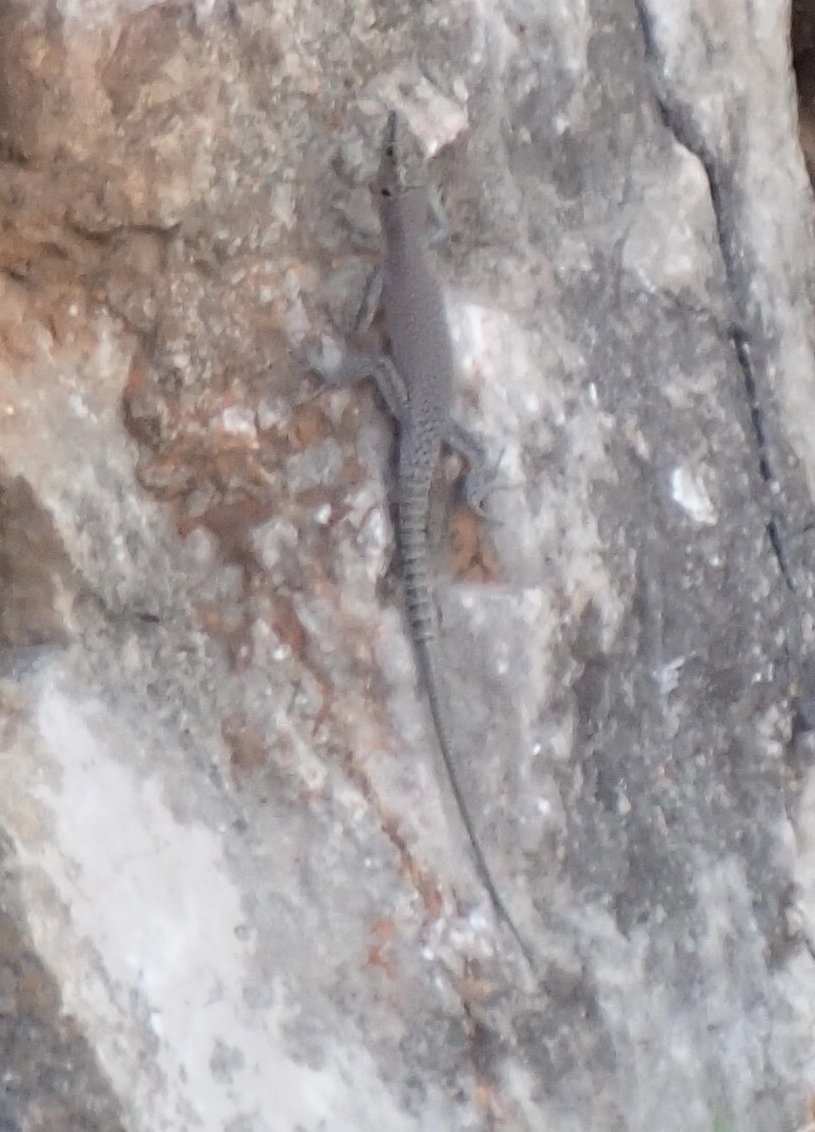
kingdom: Animalia
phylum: Chordata
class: Squamata
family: Lacertidae
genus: Dalmatolacerta
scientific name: Dalmatolacerta oxycephala
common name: Sharp-snouted rock lizard
